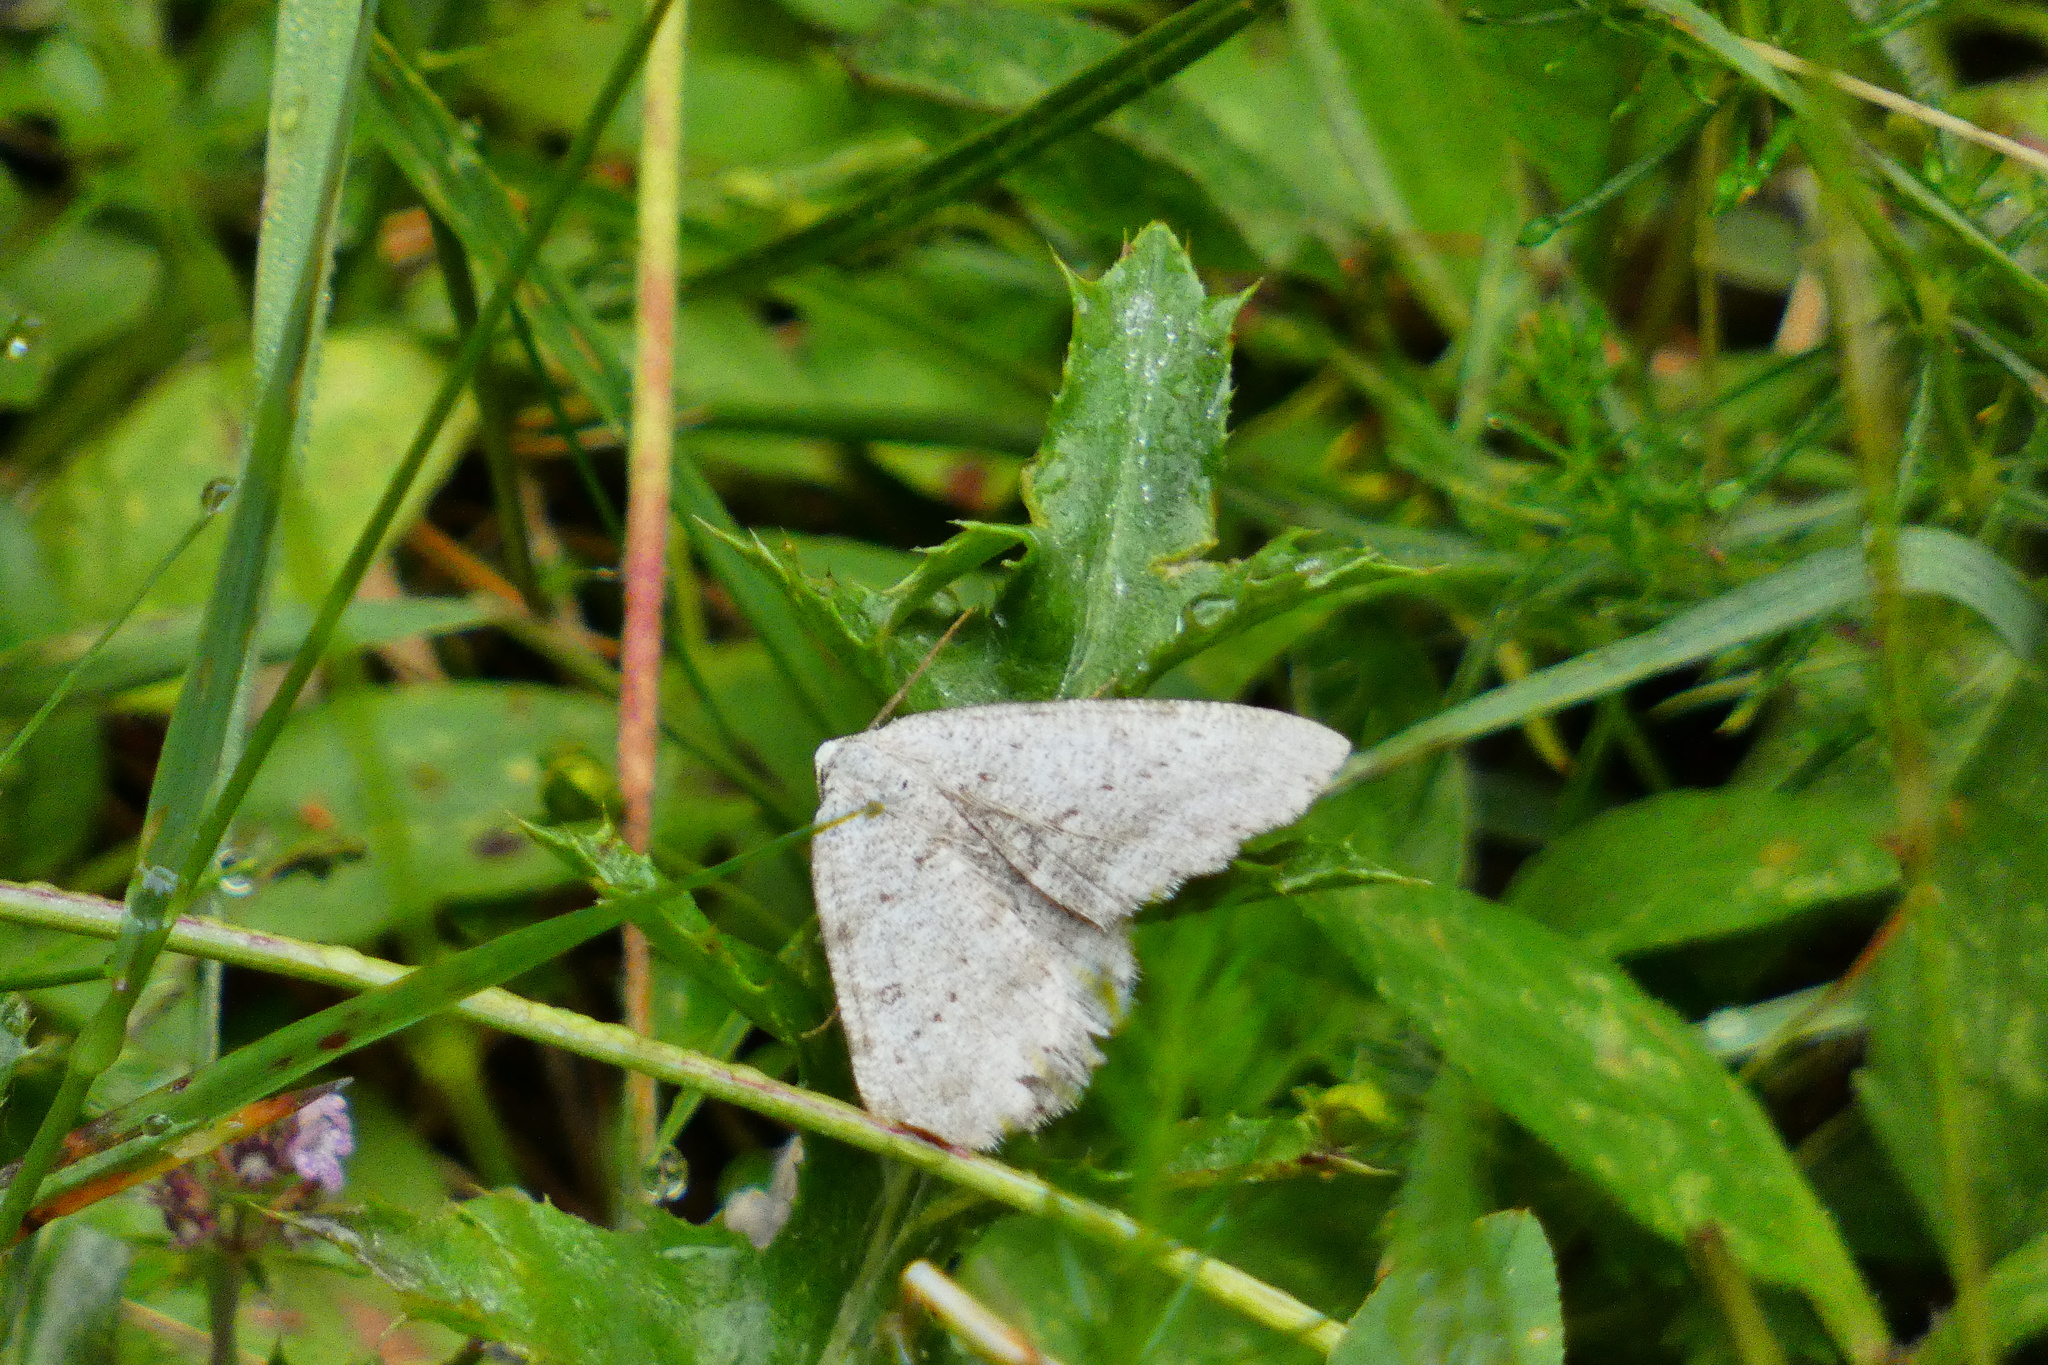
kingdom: Animalia
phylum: Arthropoda
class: Insecta
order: Lepidoptera
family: Geometridae
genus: Elophos
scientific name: Elophos Yezognophos dilucidaria
